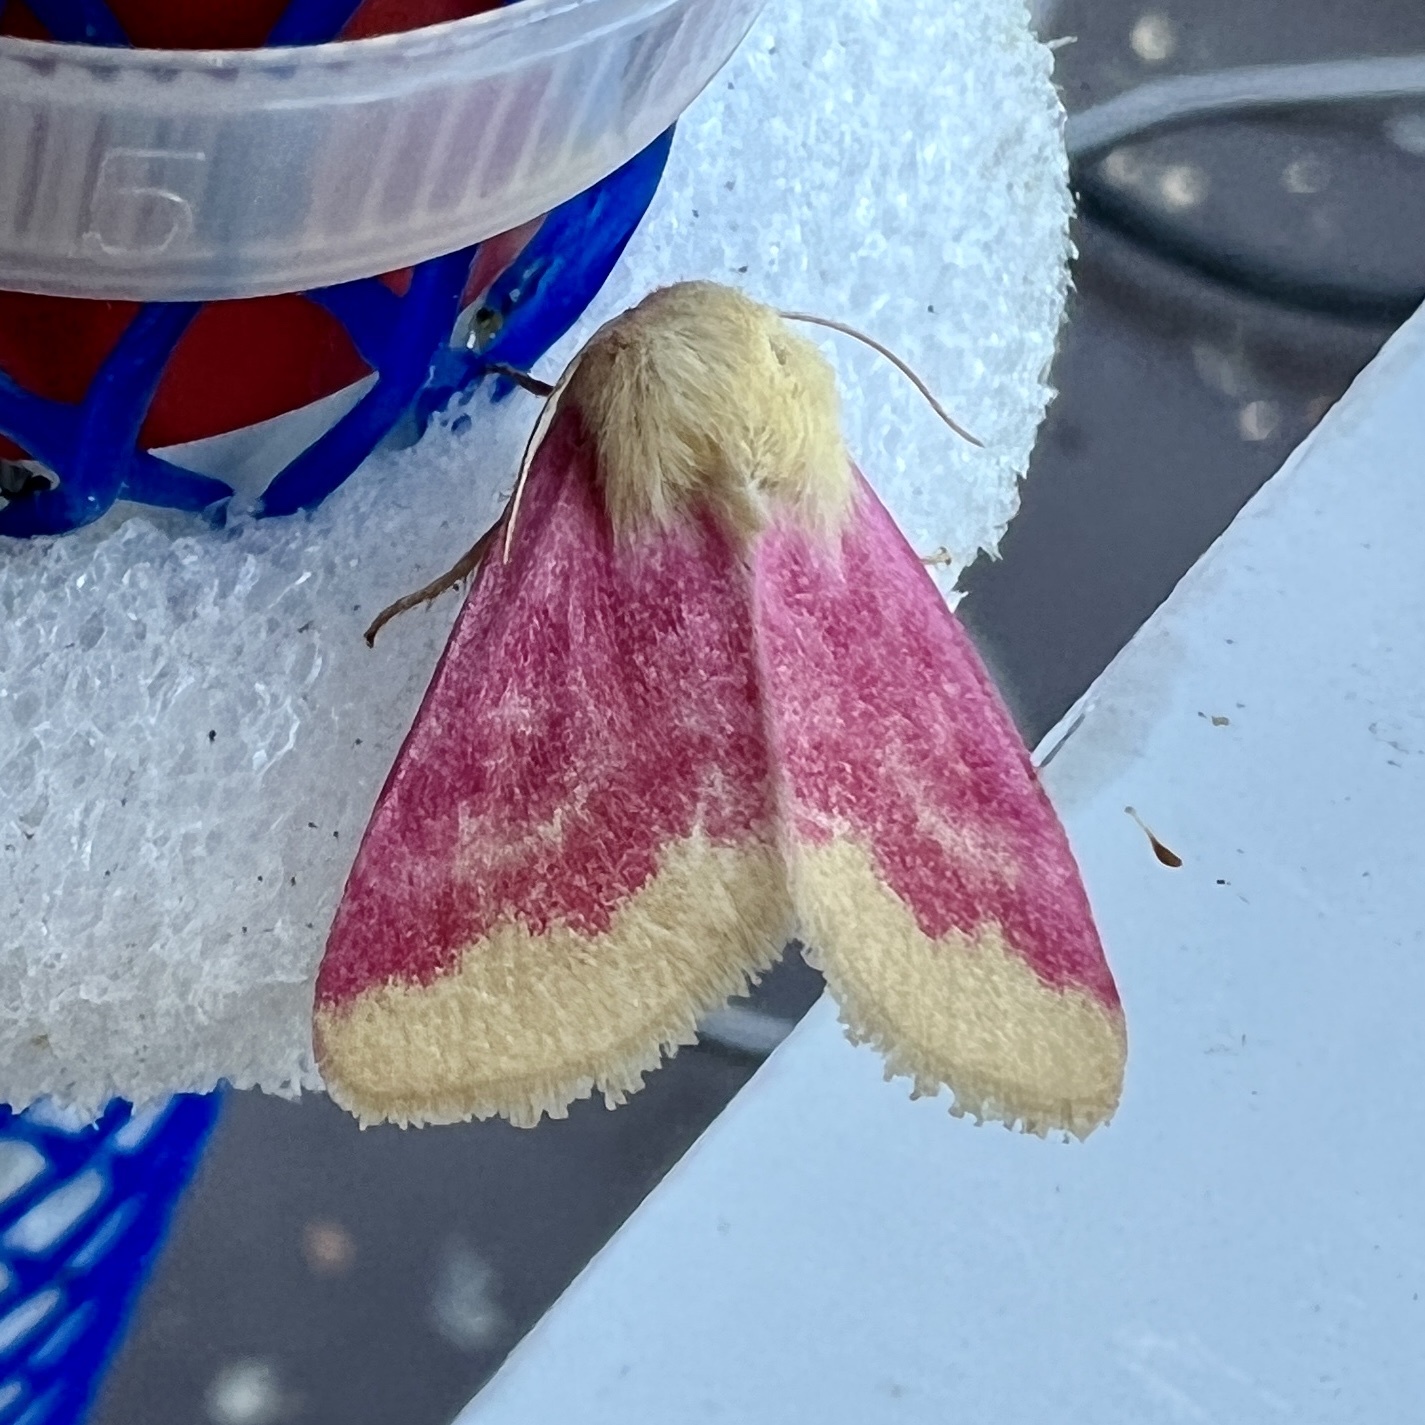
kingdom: Animalia
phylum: Arthropoda
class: Insecta
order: Lepidoptera
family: Noctuidae
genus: Schinia
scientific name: Schinia florida
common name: Primrose moth
